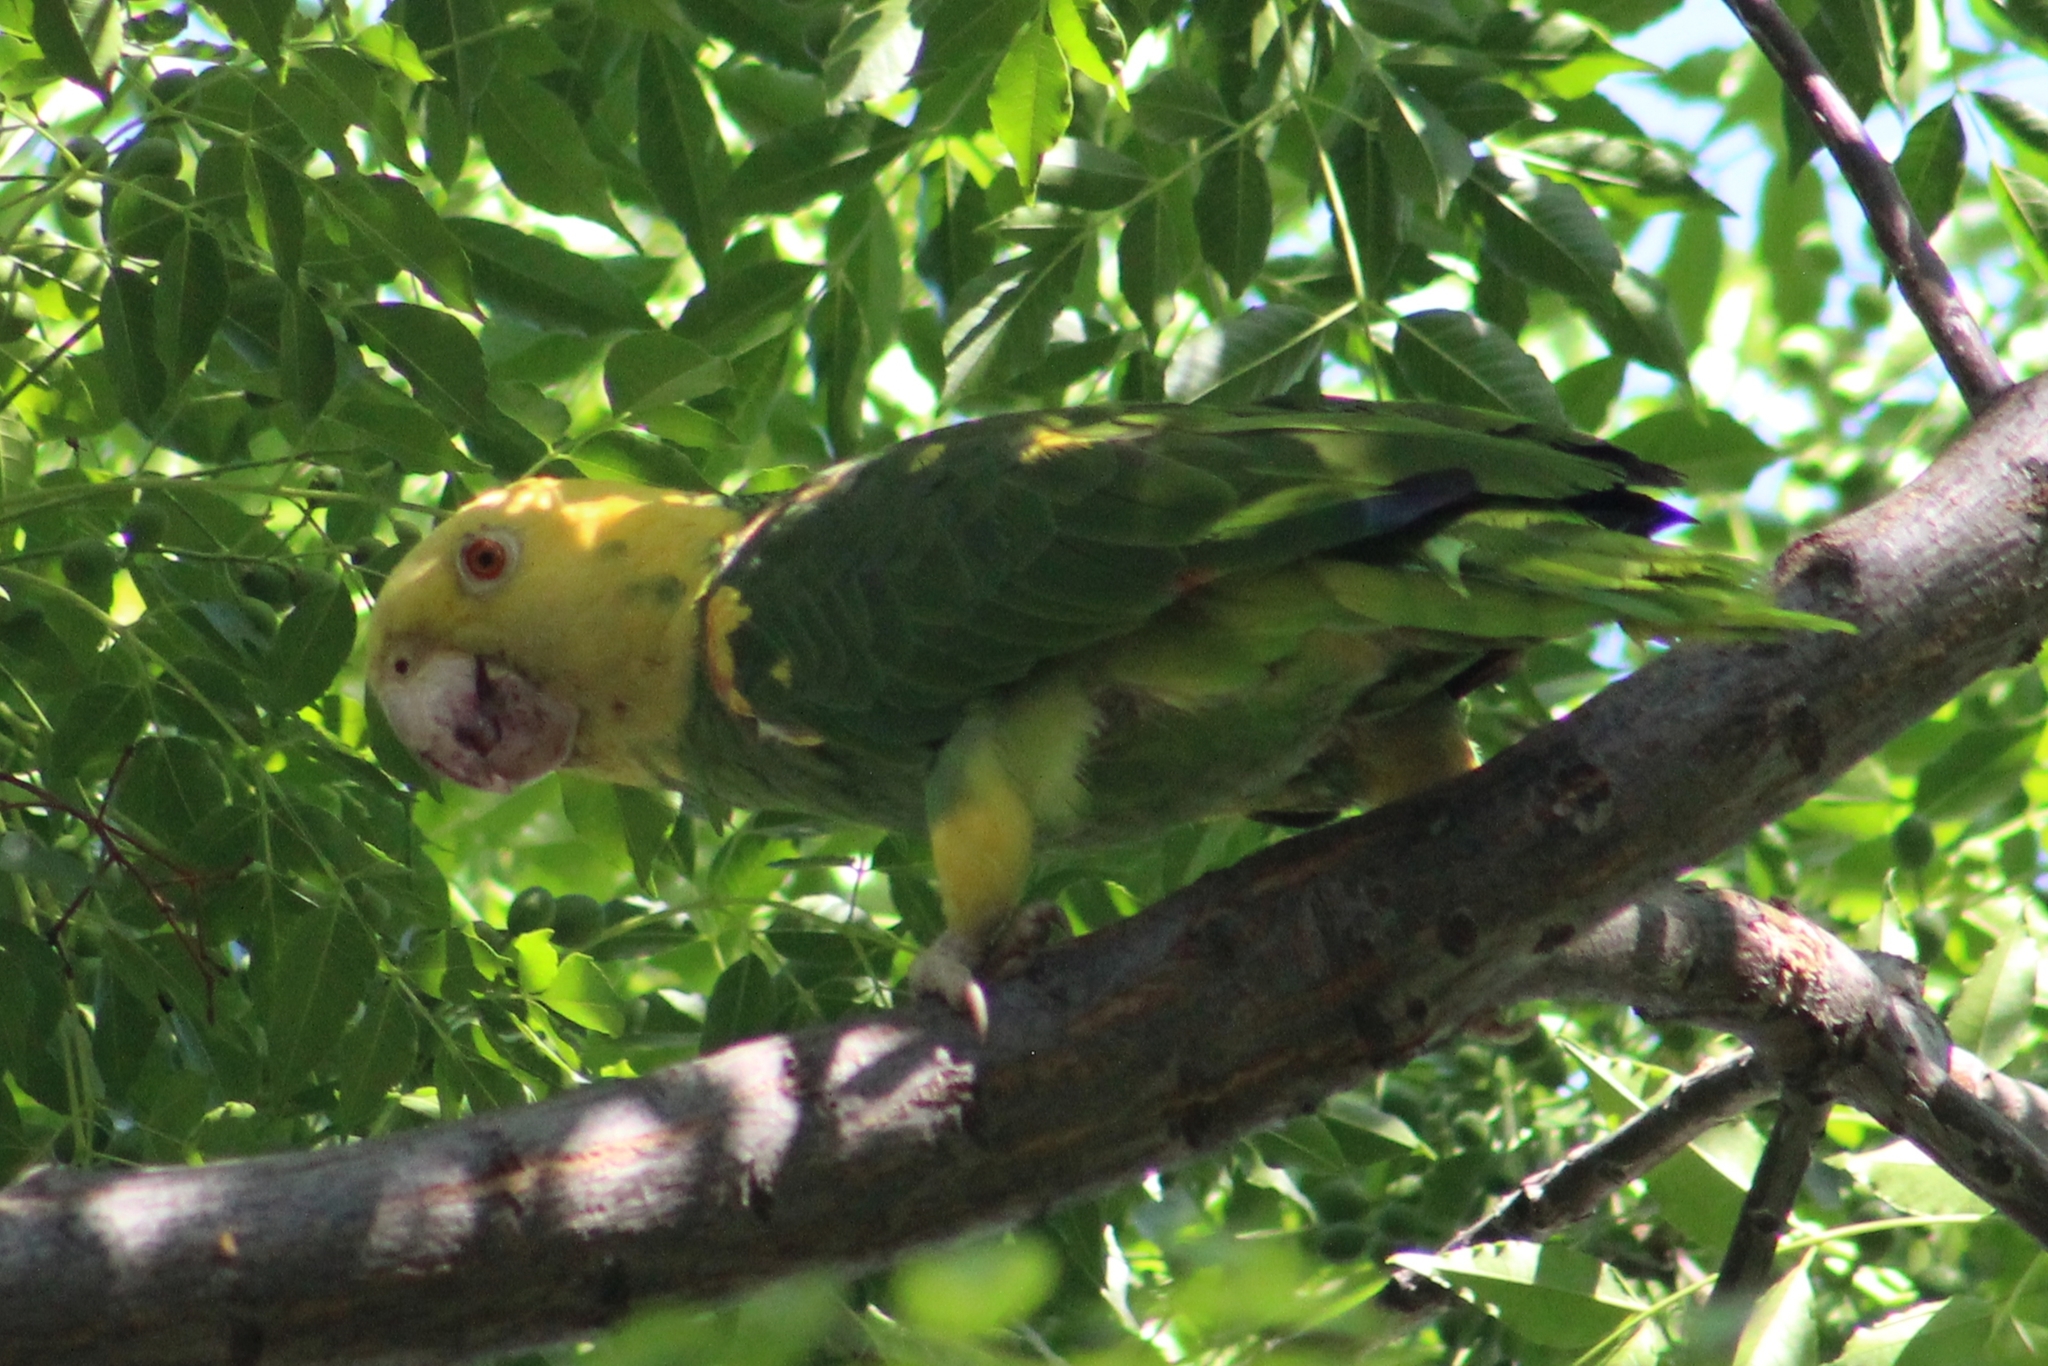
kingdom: Animalia
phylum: Chordata
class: Aves
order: Psittaciformes
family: Psittacidae
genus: Amazona
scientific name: Amazona oratrix
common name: Yellow-headed amazon
